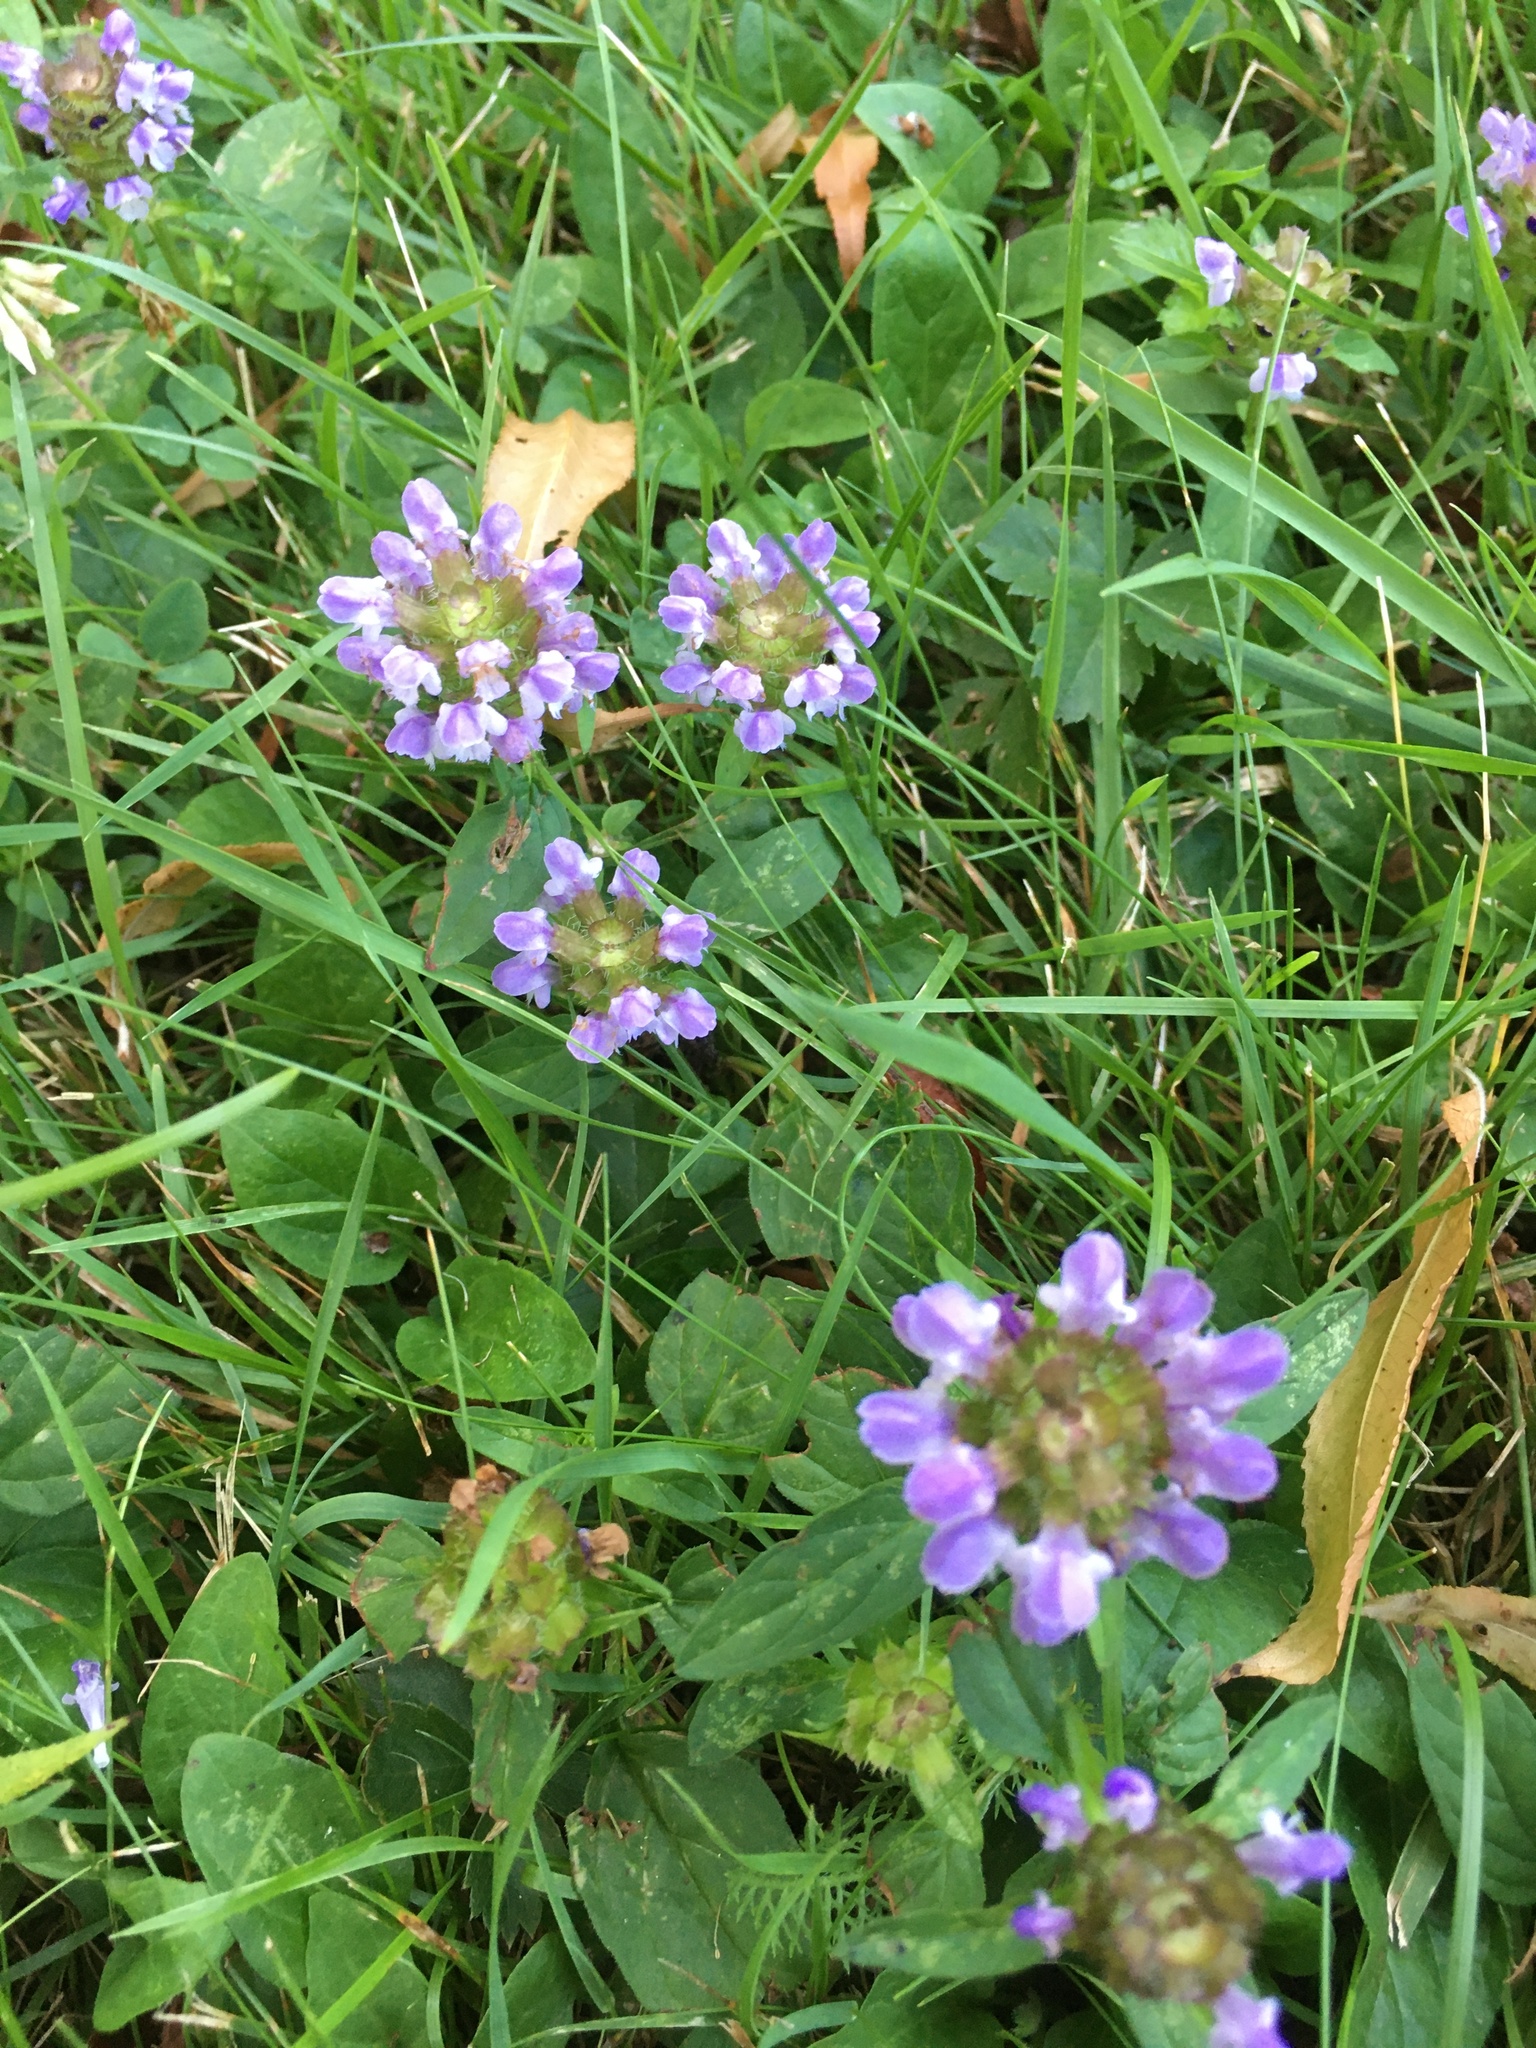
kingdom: Plantae
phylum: Tracheophyta
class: Magnoliopsida
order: Lamiales
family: Lamiaceae
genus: Prunella
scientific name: Prunella vulgaris
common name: Heal-all
